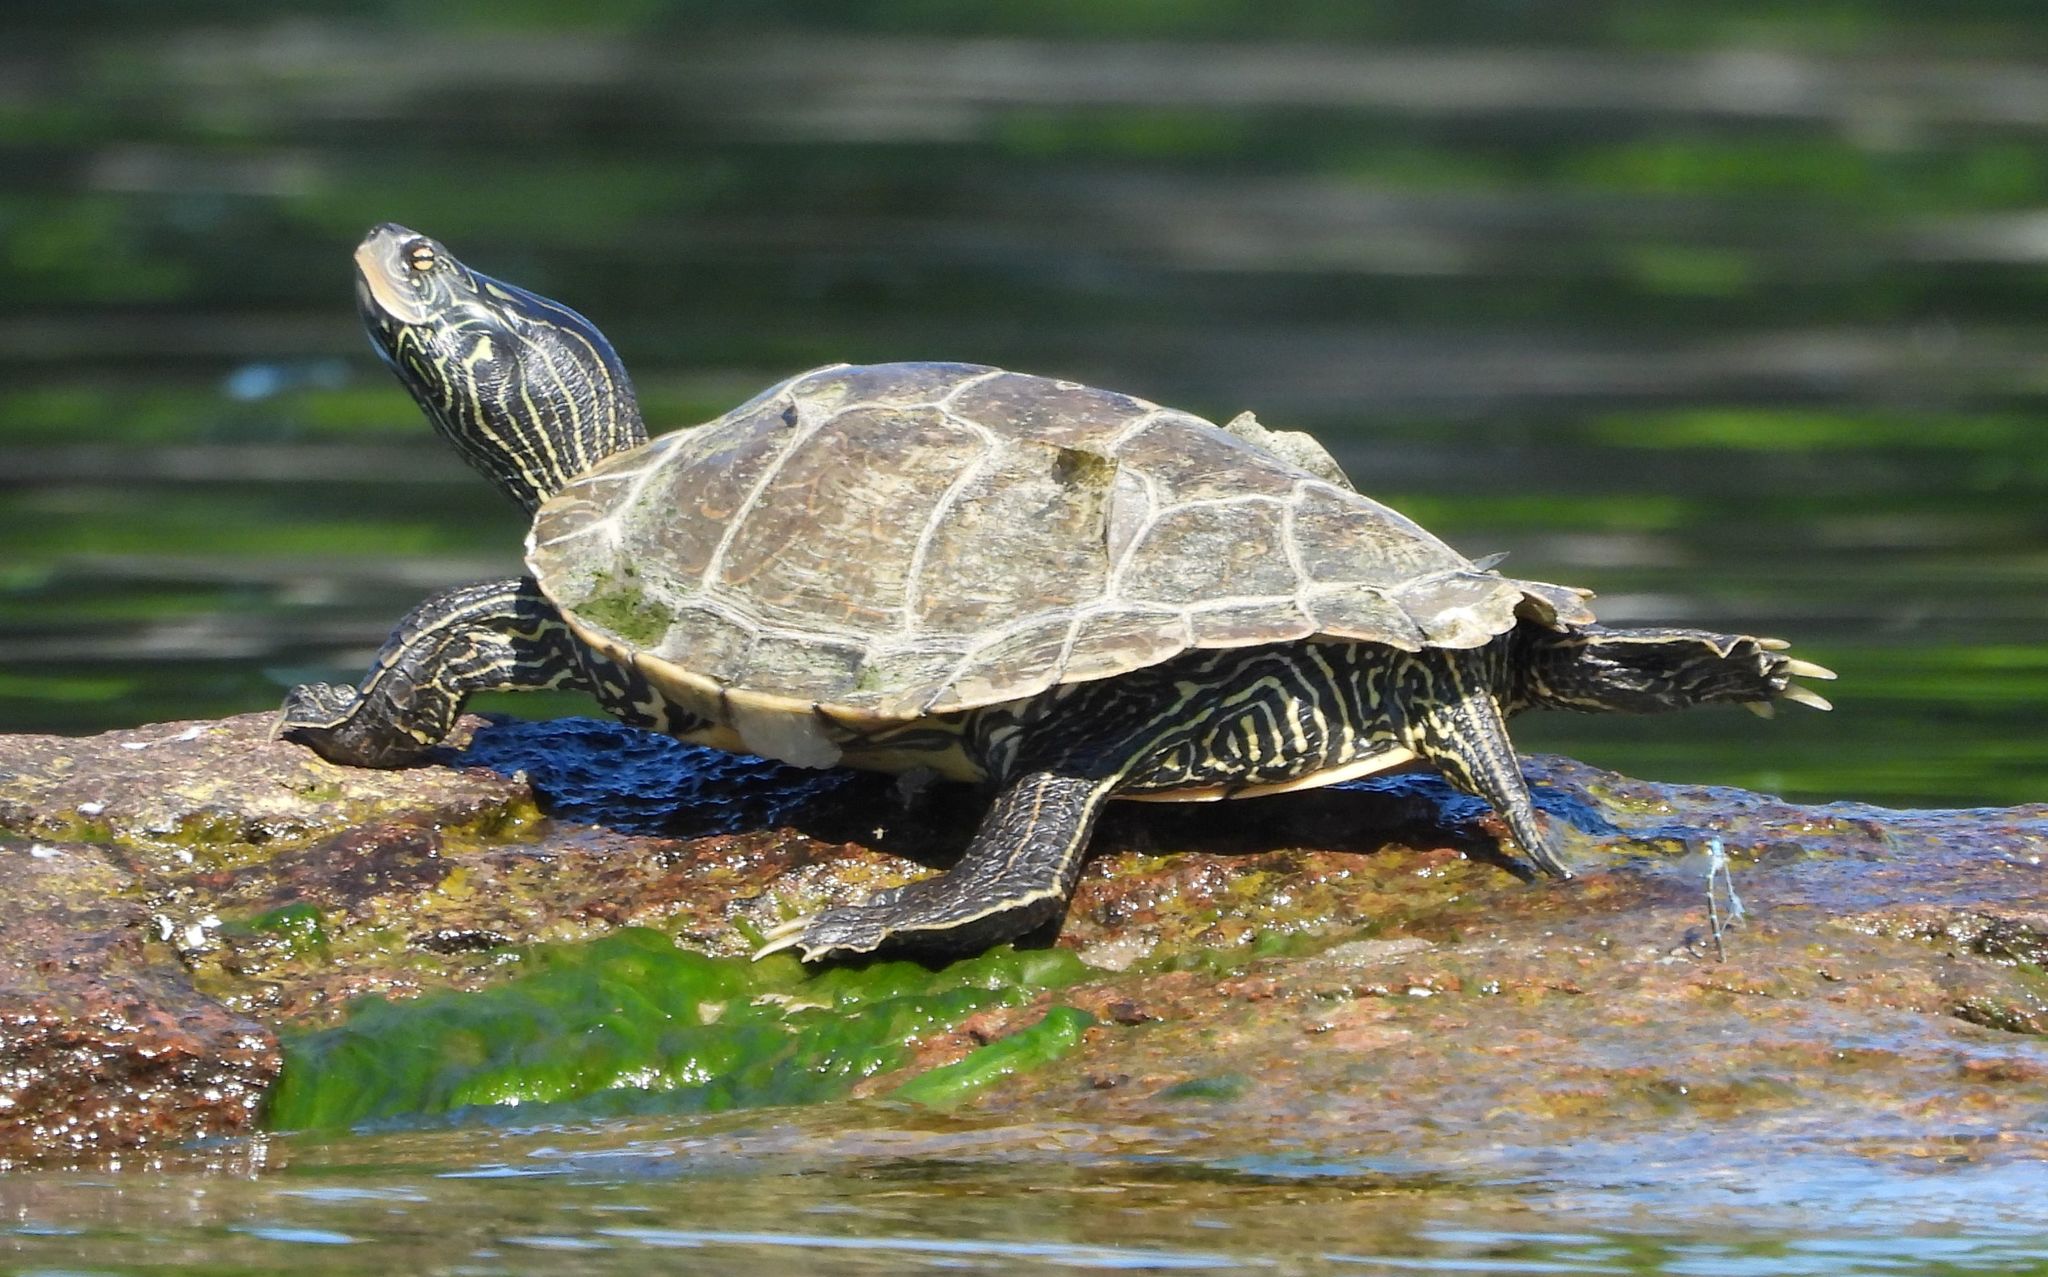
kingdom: Animalia
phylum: Chordata
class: Testudines
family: Emydidae
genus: Graptemys
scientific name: Graptemys geographica
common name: Common map turtle
